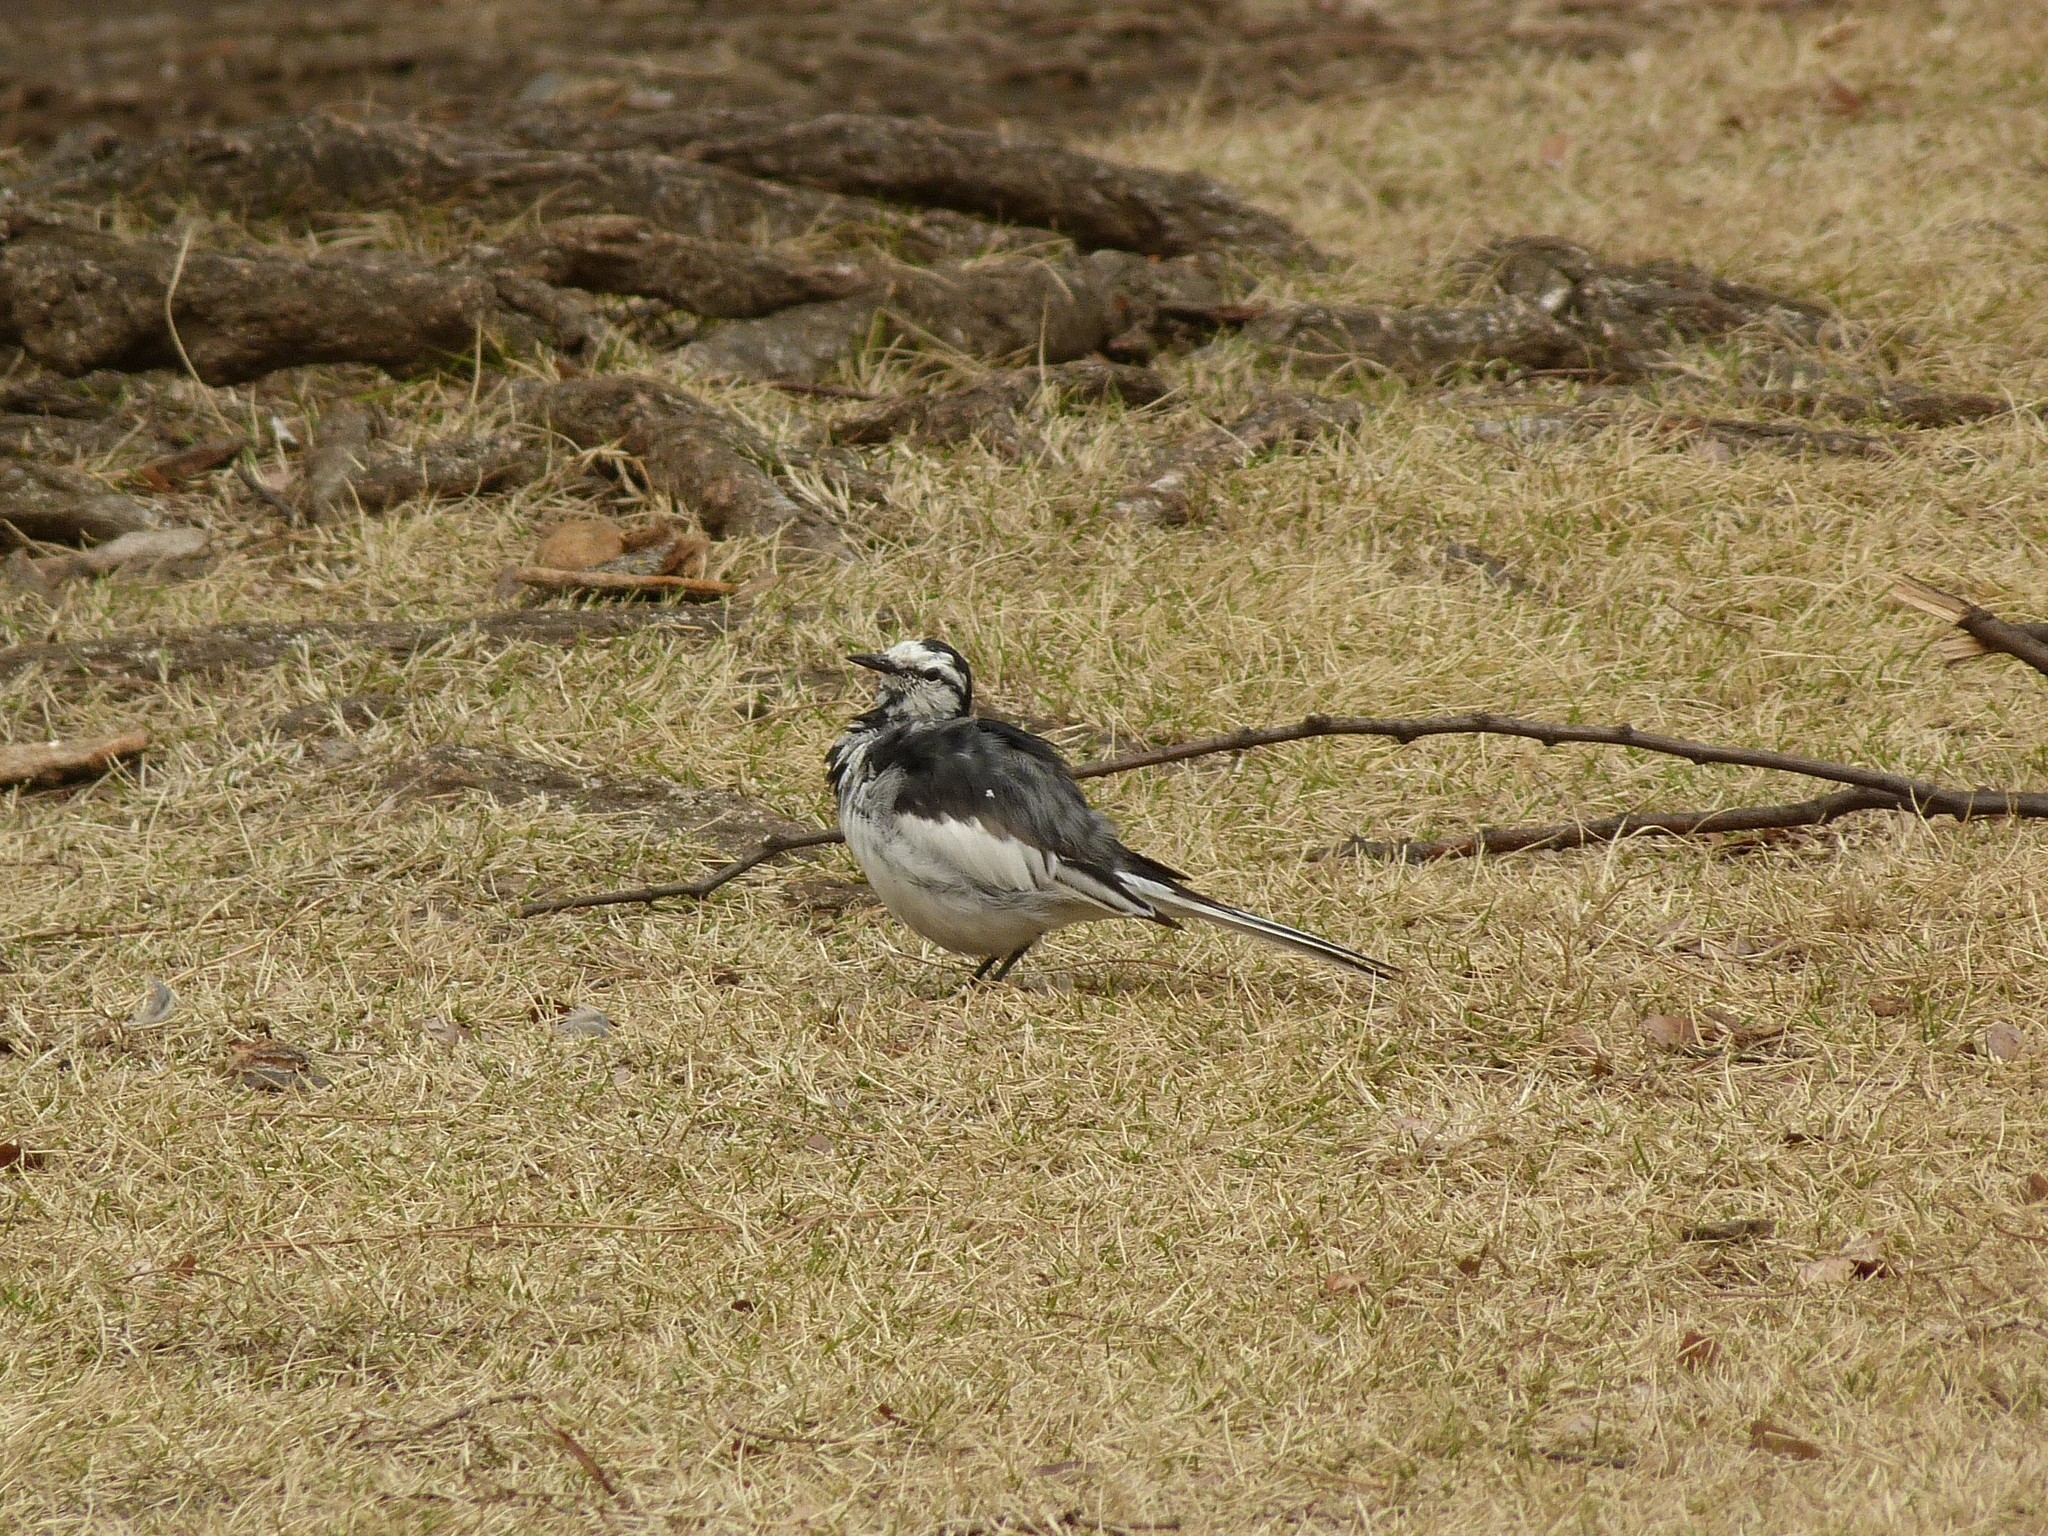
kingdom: Animalia
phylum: Chordata
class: Aves
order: Passeriformes
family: Motacillidae
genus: Motacilla
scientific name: Motacilla alba
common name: White wagtail
